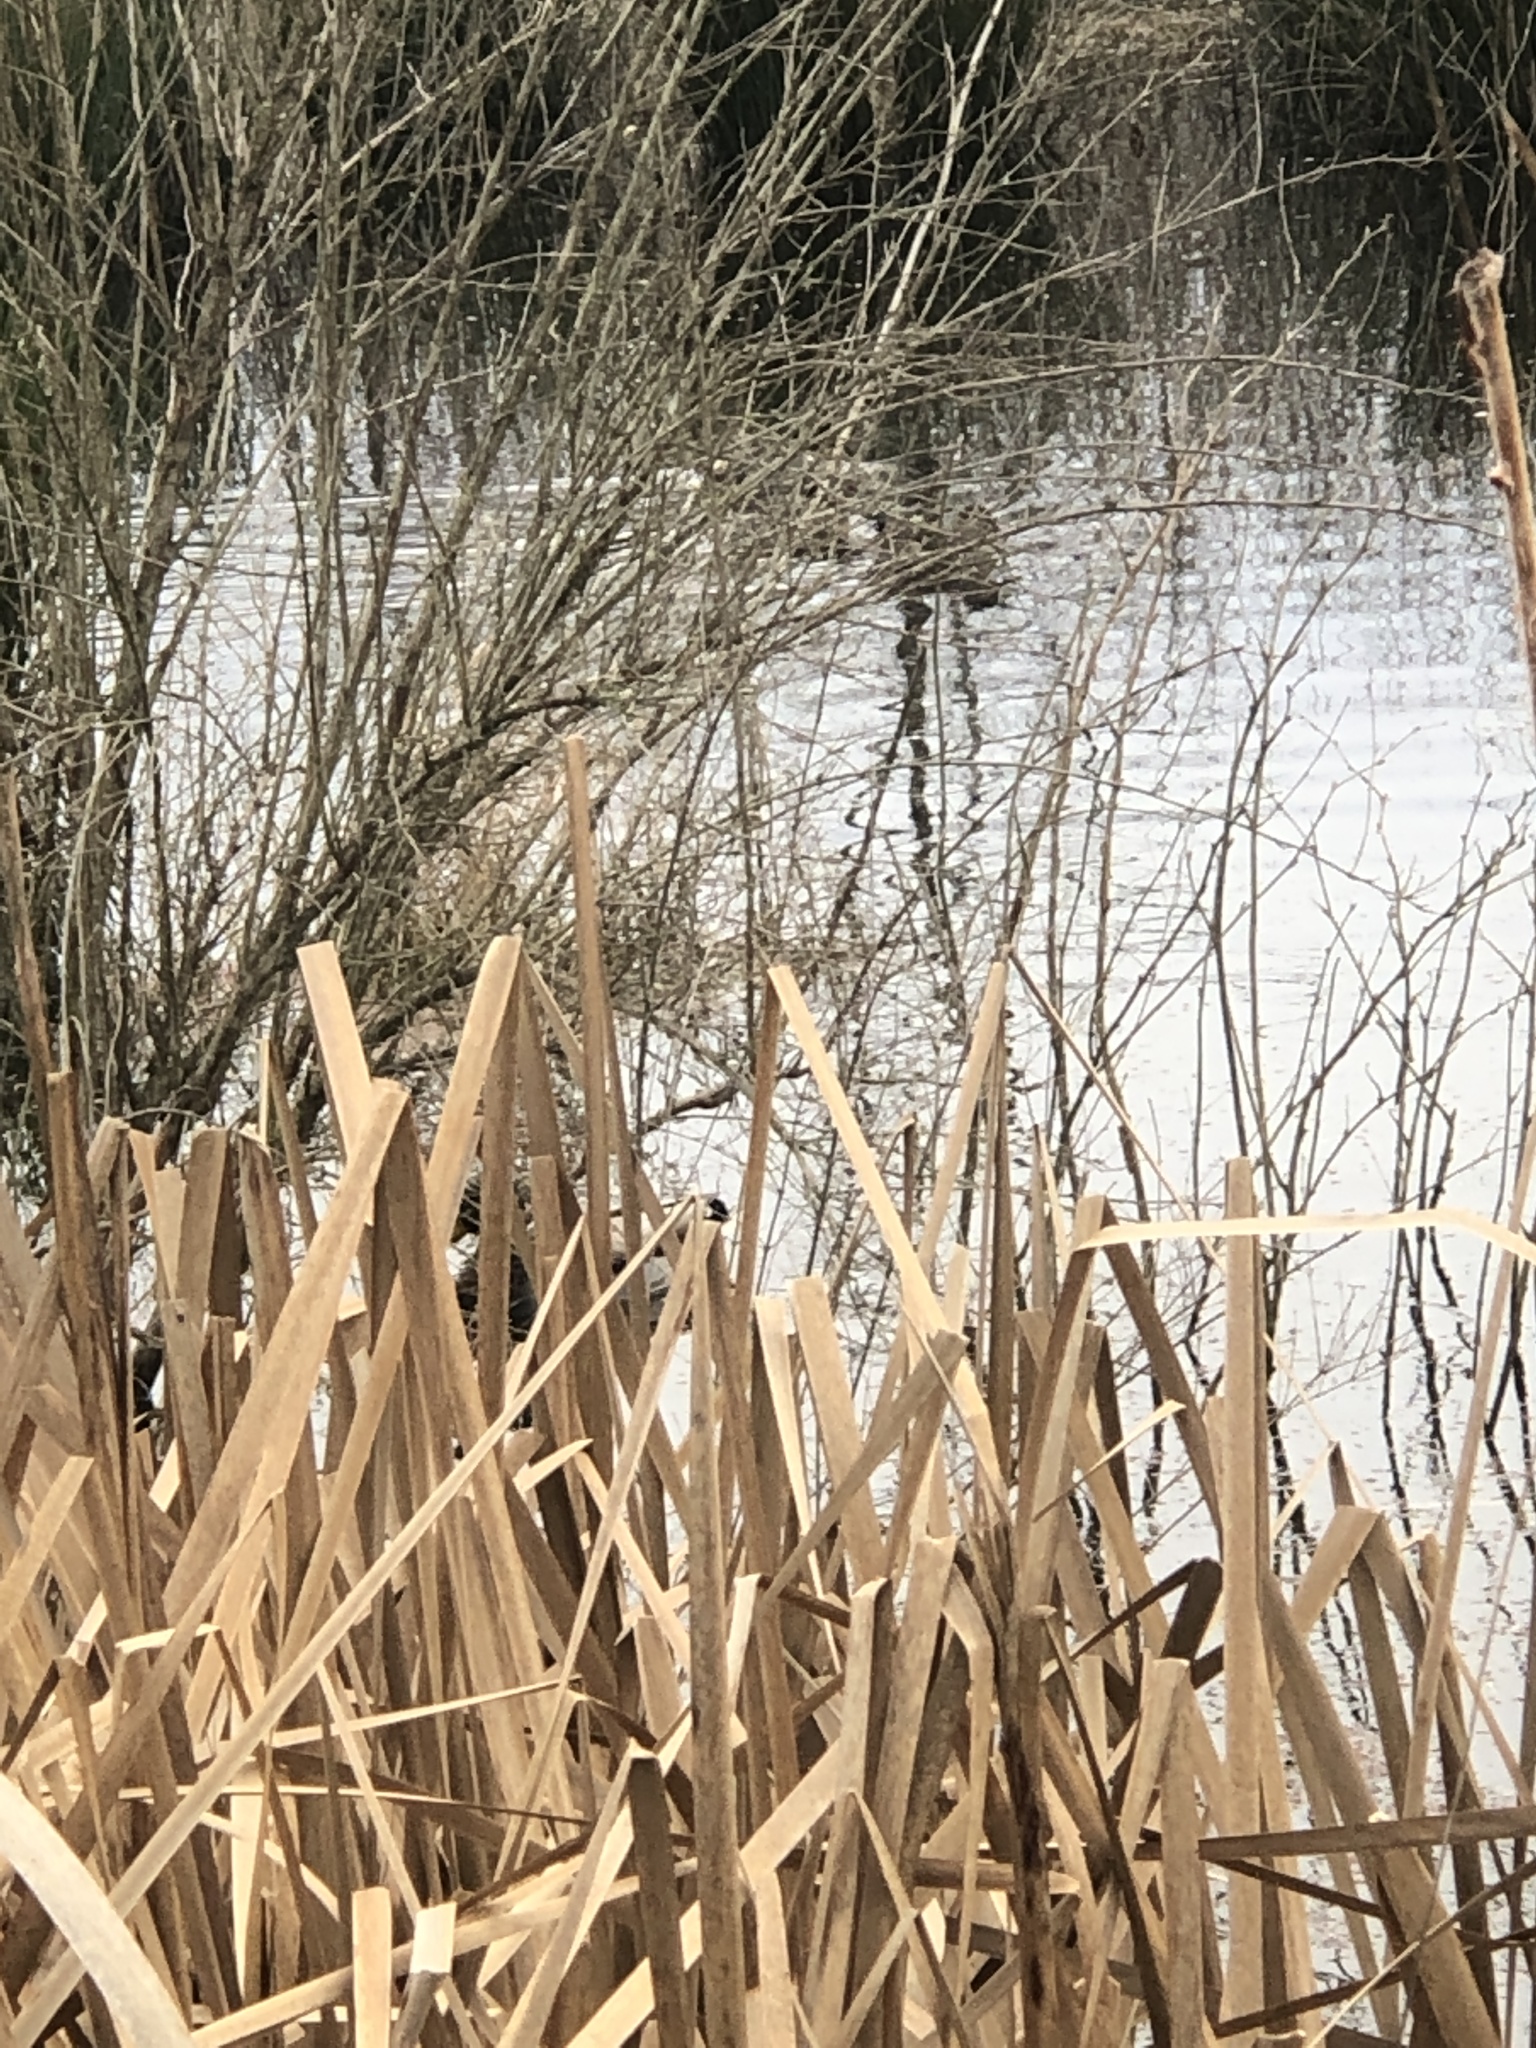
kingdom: Animalia
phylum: Chordata
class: Aves
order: Anseriformes
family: Anatidae
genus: Anas
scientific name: Anas crecca
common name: Eurasian teal
